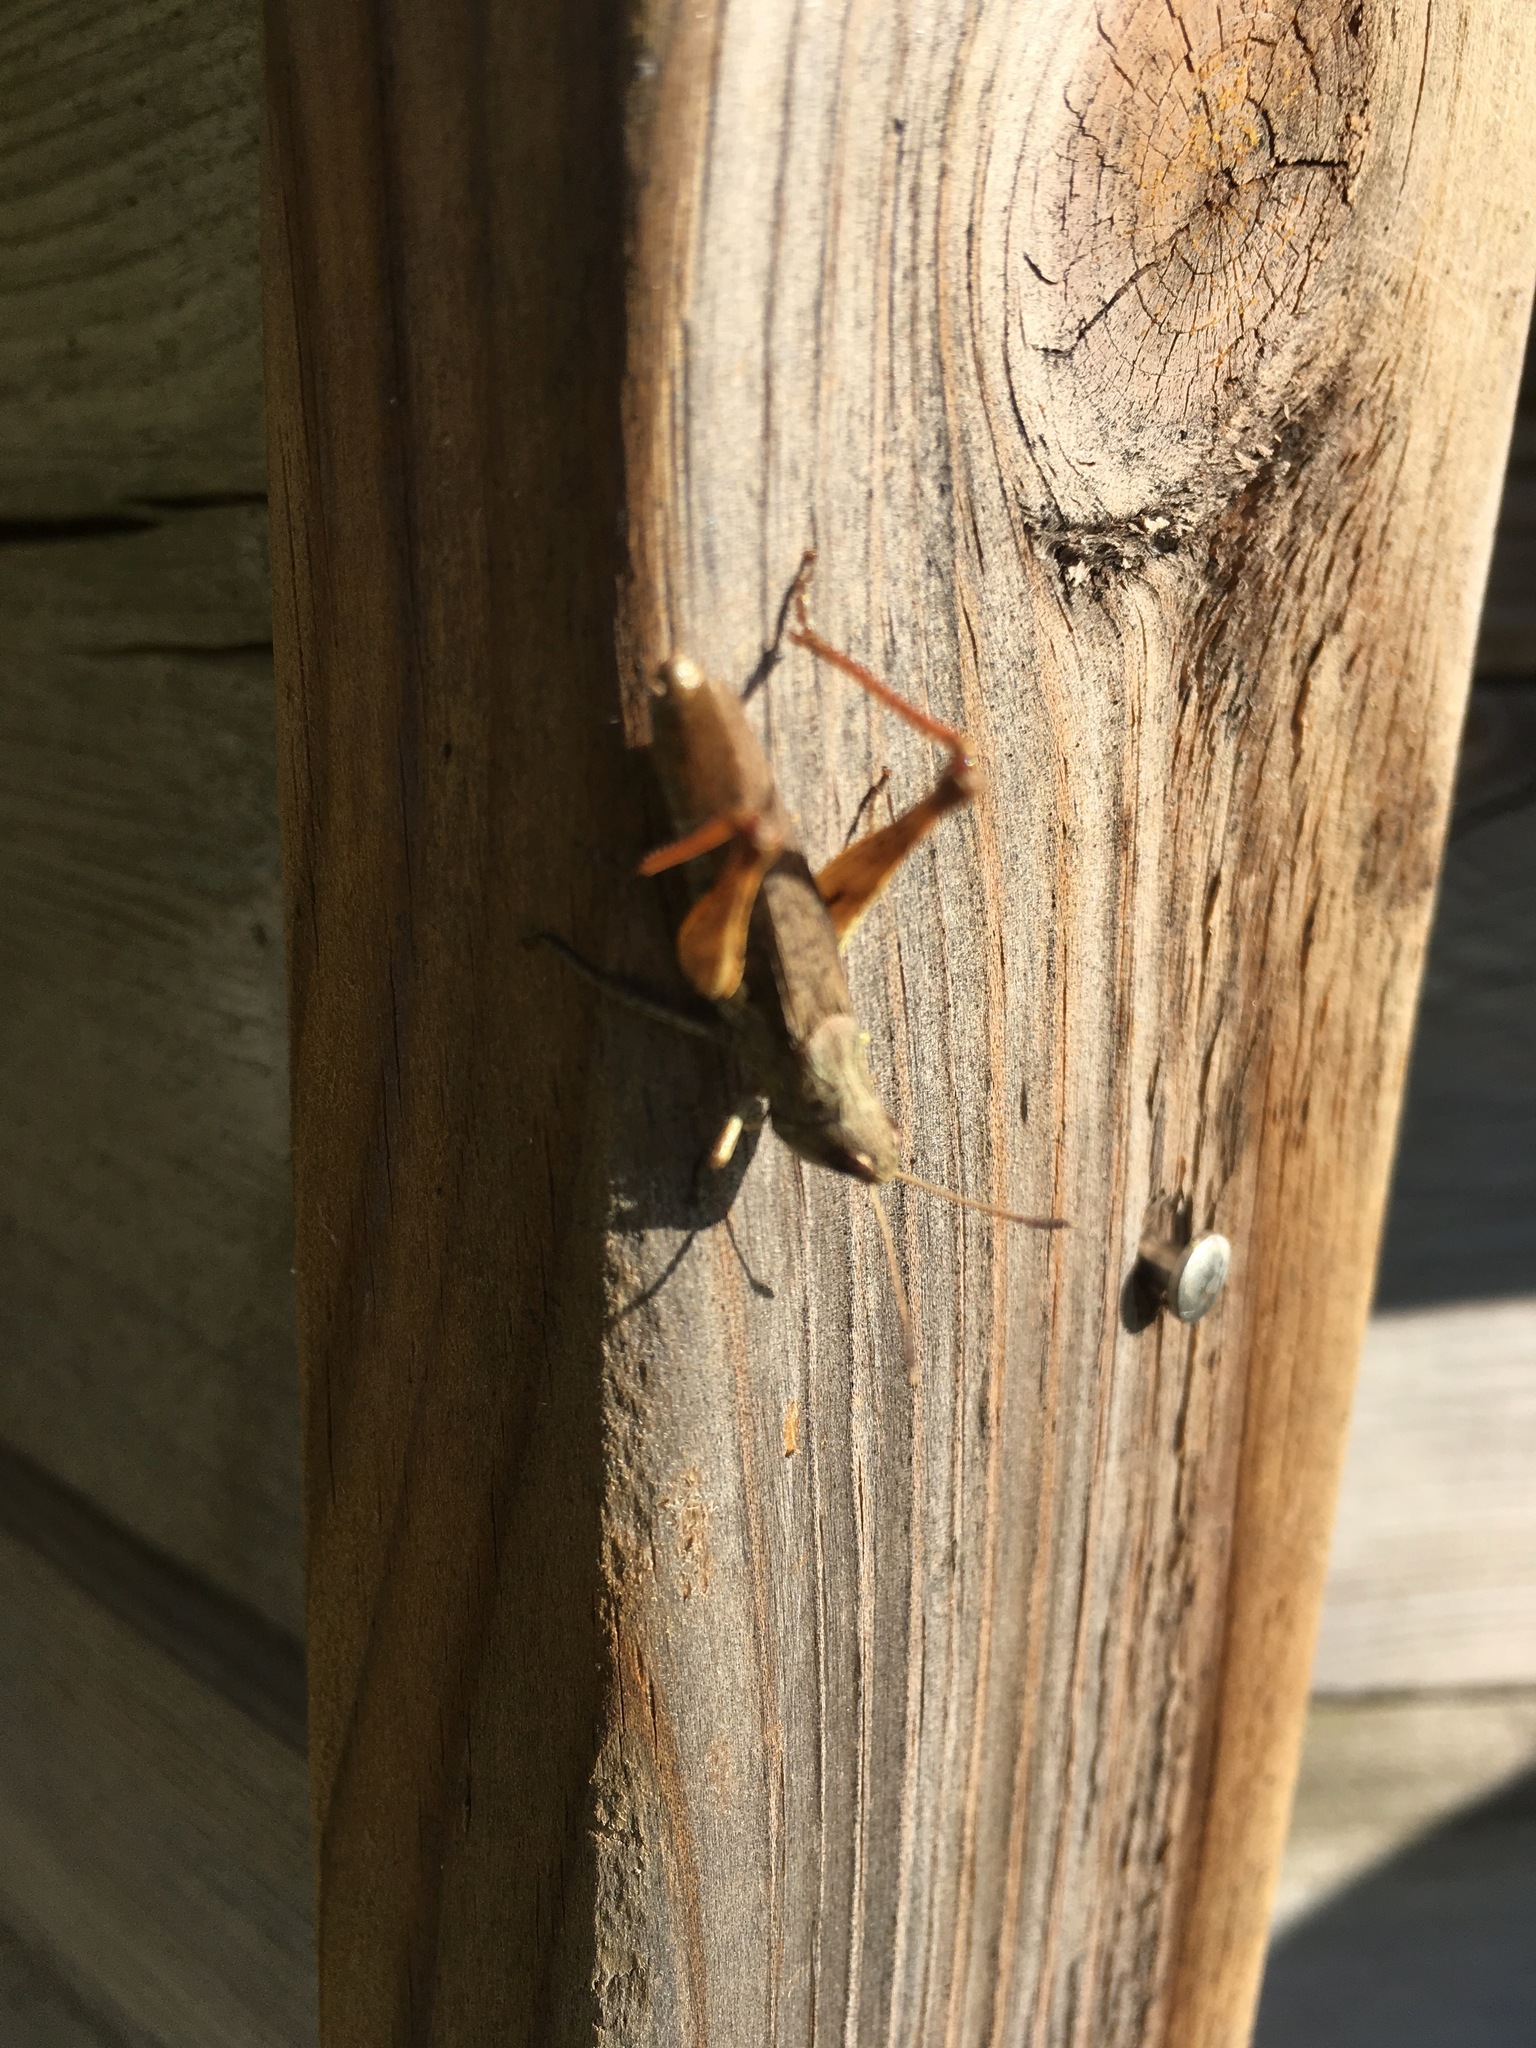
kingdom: Animalia
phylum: Arthropoda
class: Insecta
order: Orthoptera
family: Acrididae
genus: Gomphocerippus
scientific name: Gomphocerippus rufus
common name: Rufous grasshopper
